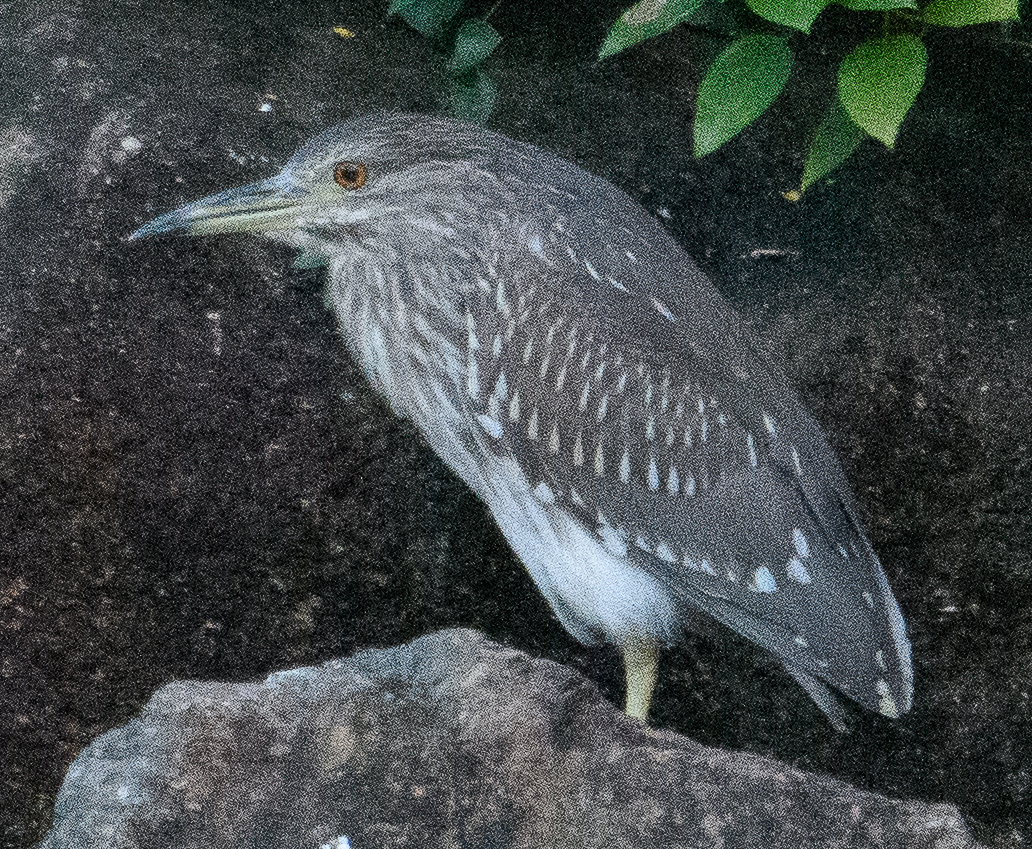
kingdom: Animalia
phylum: Chordata
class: Aves
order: Pelecaniformes
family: Ardeidae
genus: Nycticorax
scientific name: Nycticorax nycticorax
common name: Black-crowned night heron
